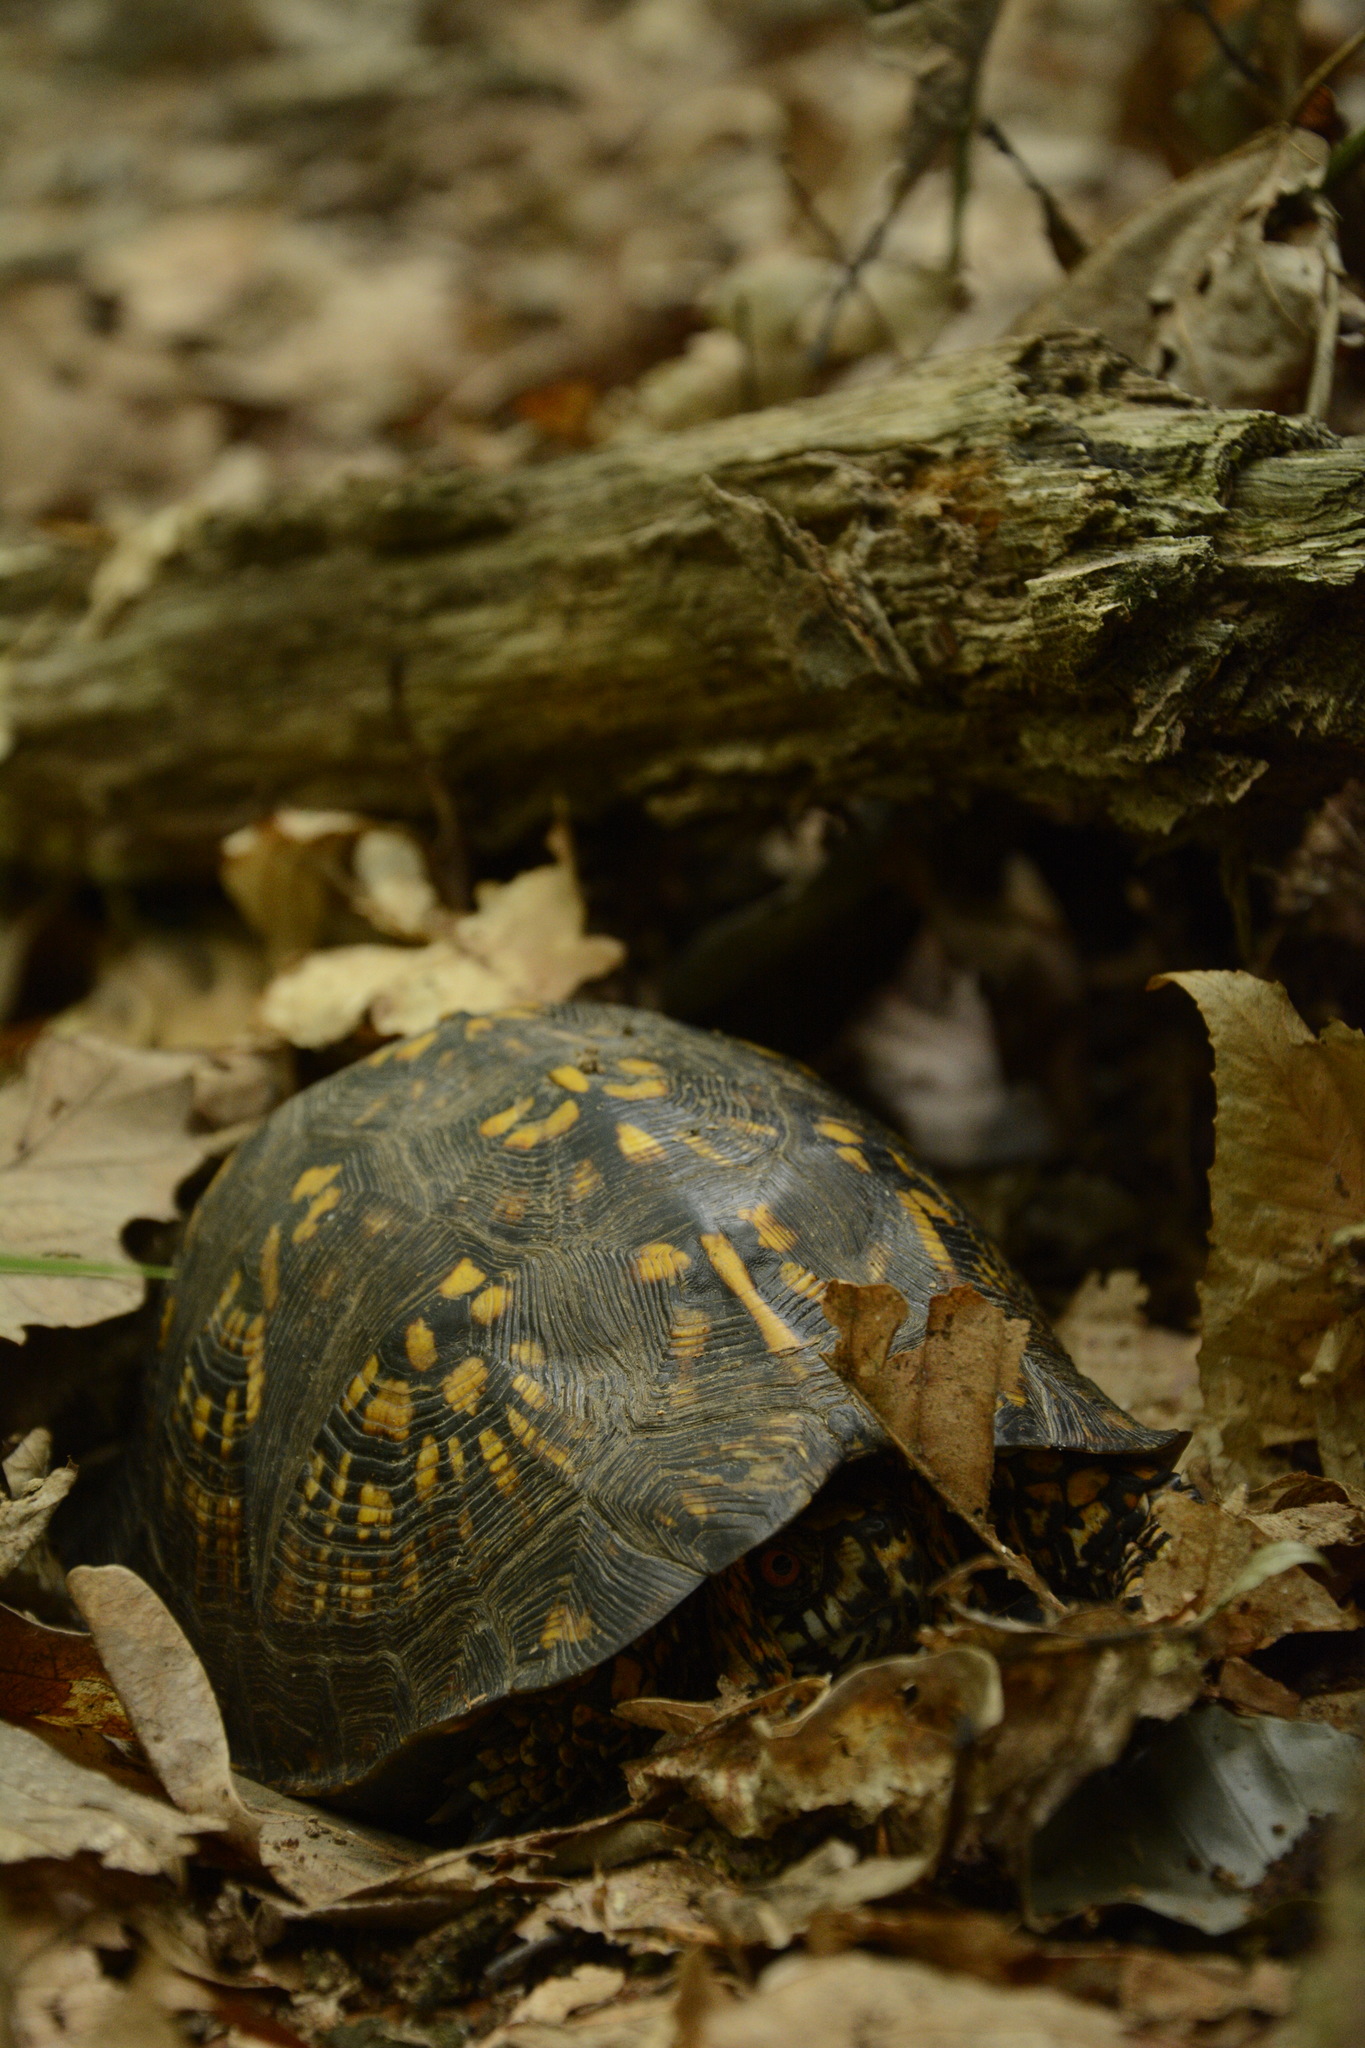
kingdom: Animalia
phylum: Chordata
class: Testudines
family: Emydidae
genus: Terrapene
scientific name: Terrapene carolina
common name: Common box turtle
